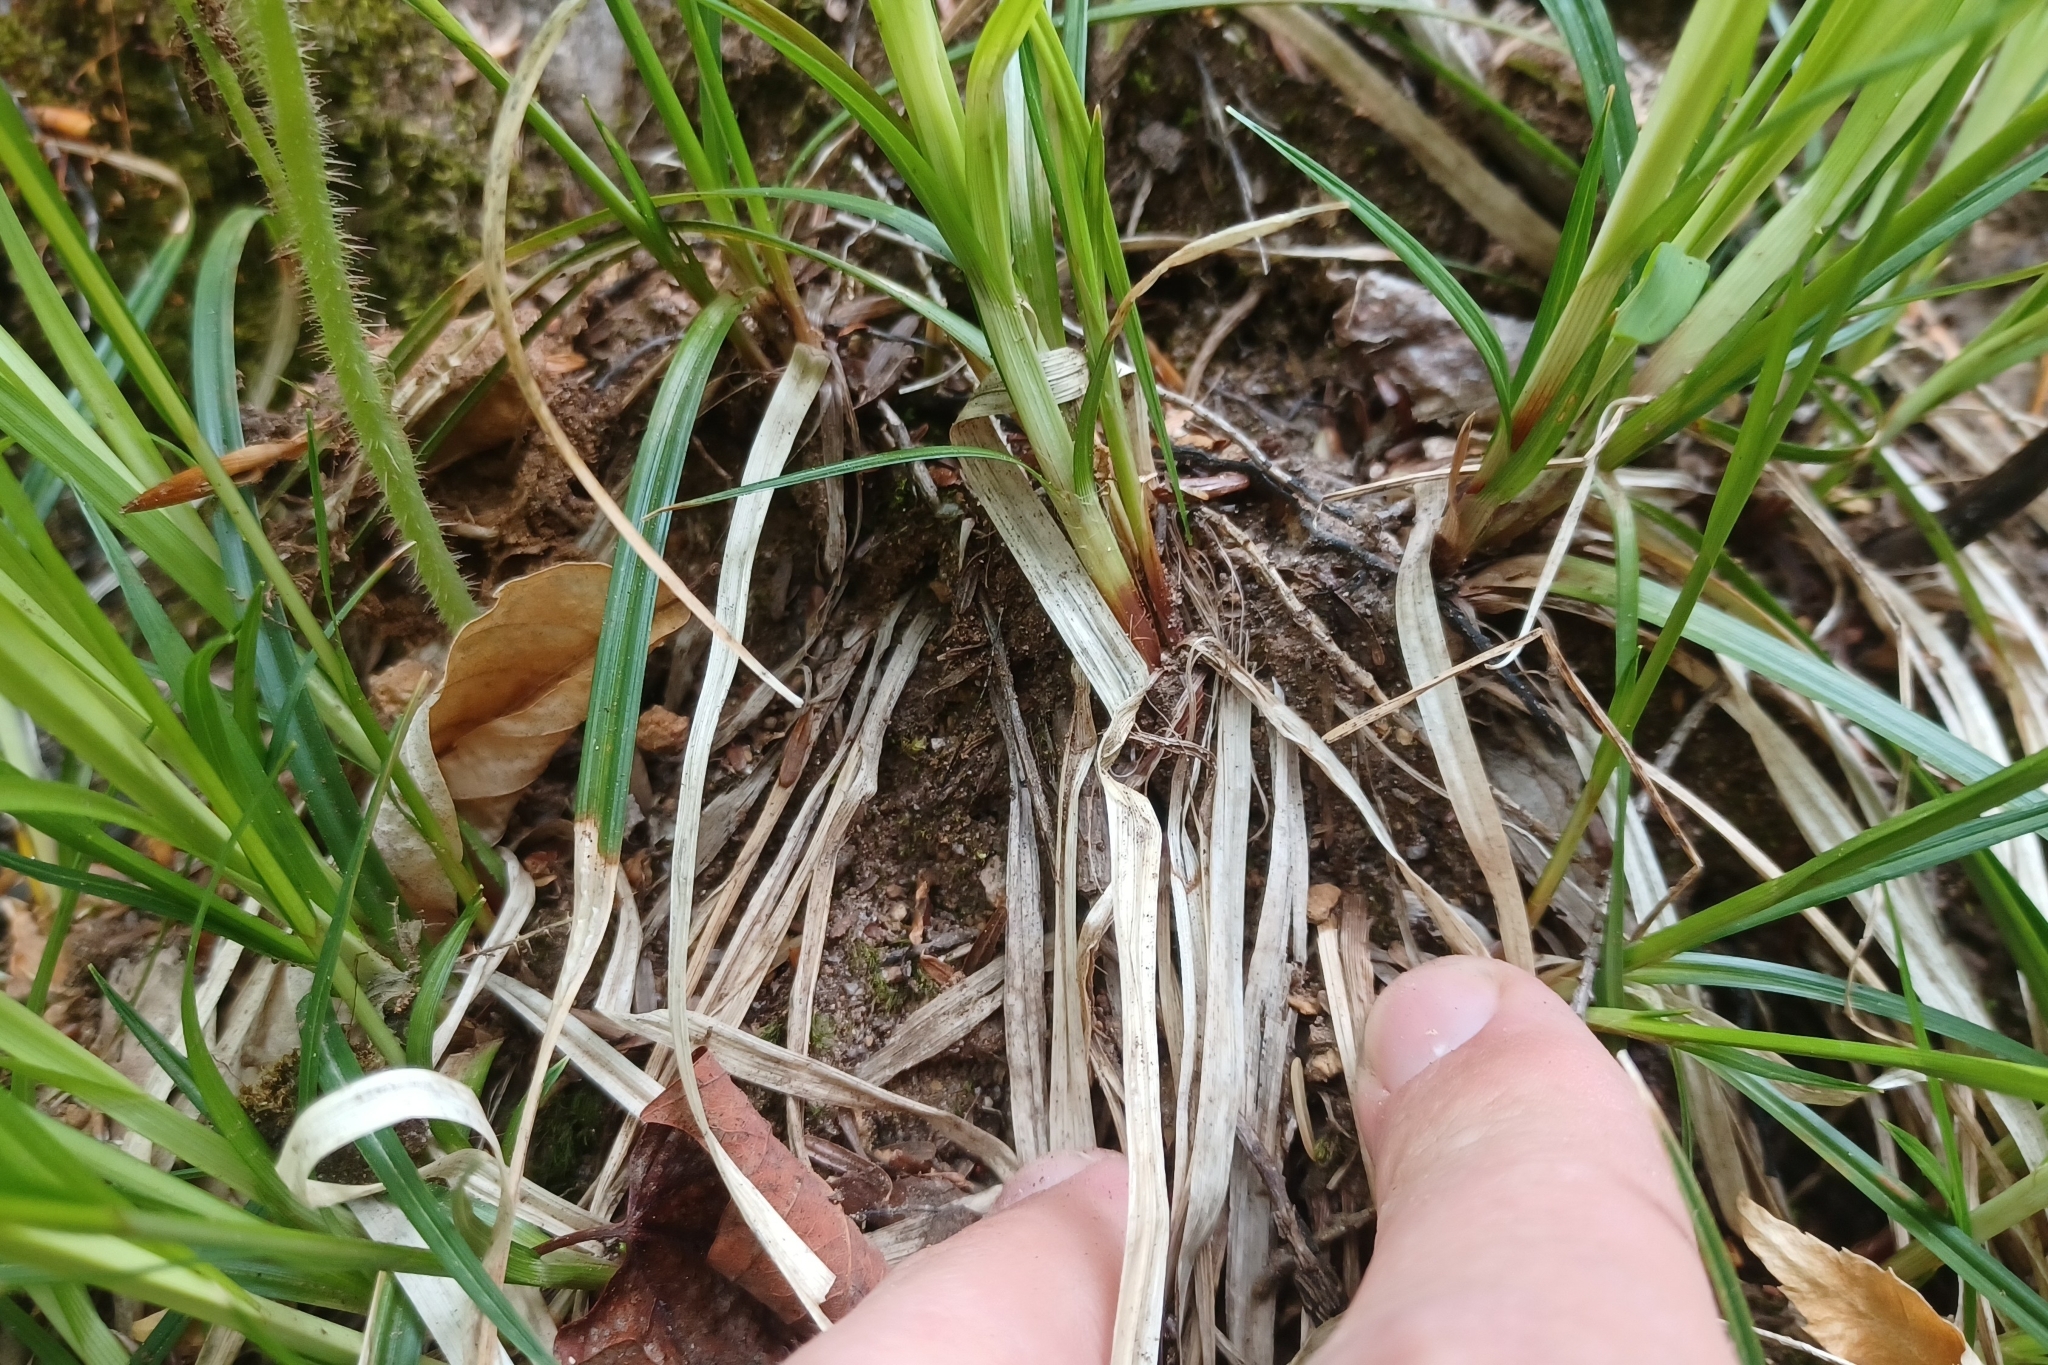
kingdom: Plantae
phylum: Tracheophyta
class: Liliopsida
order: Poales
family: Cyperaceae
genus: Carex
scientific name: Carex communis
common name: Colonial oak sedge
